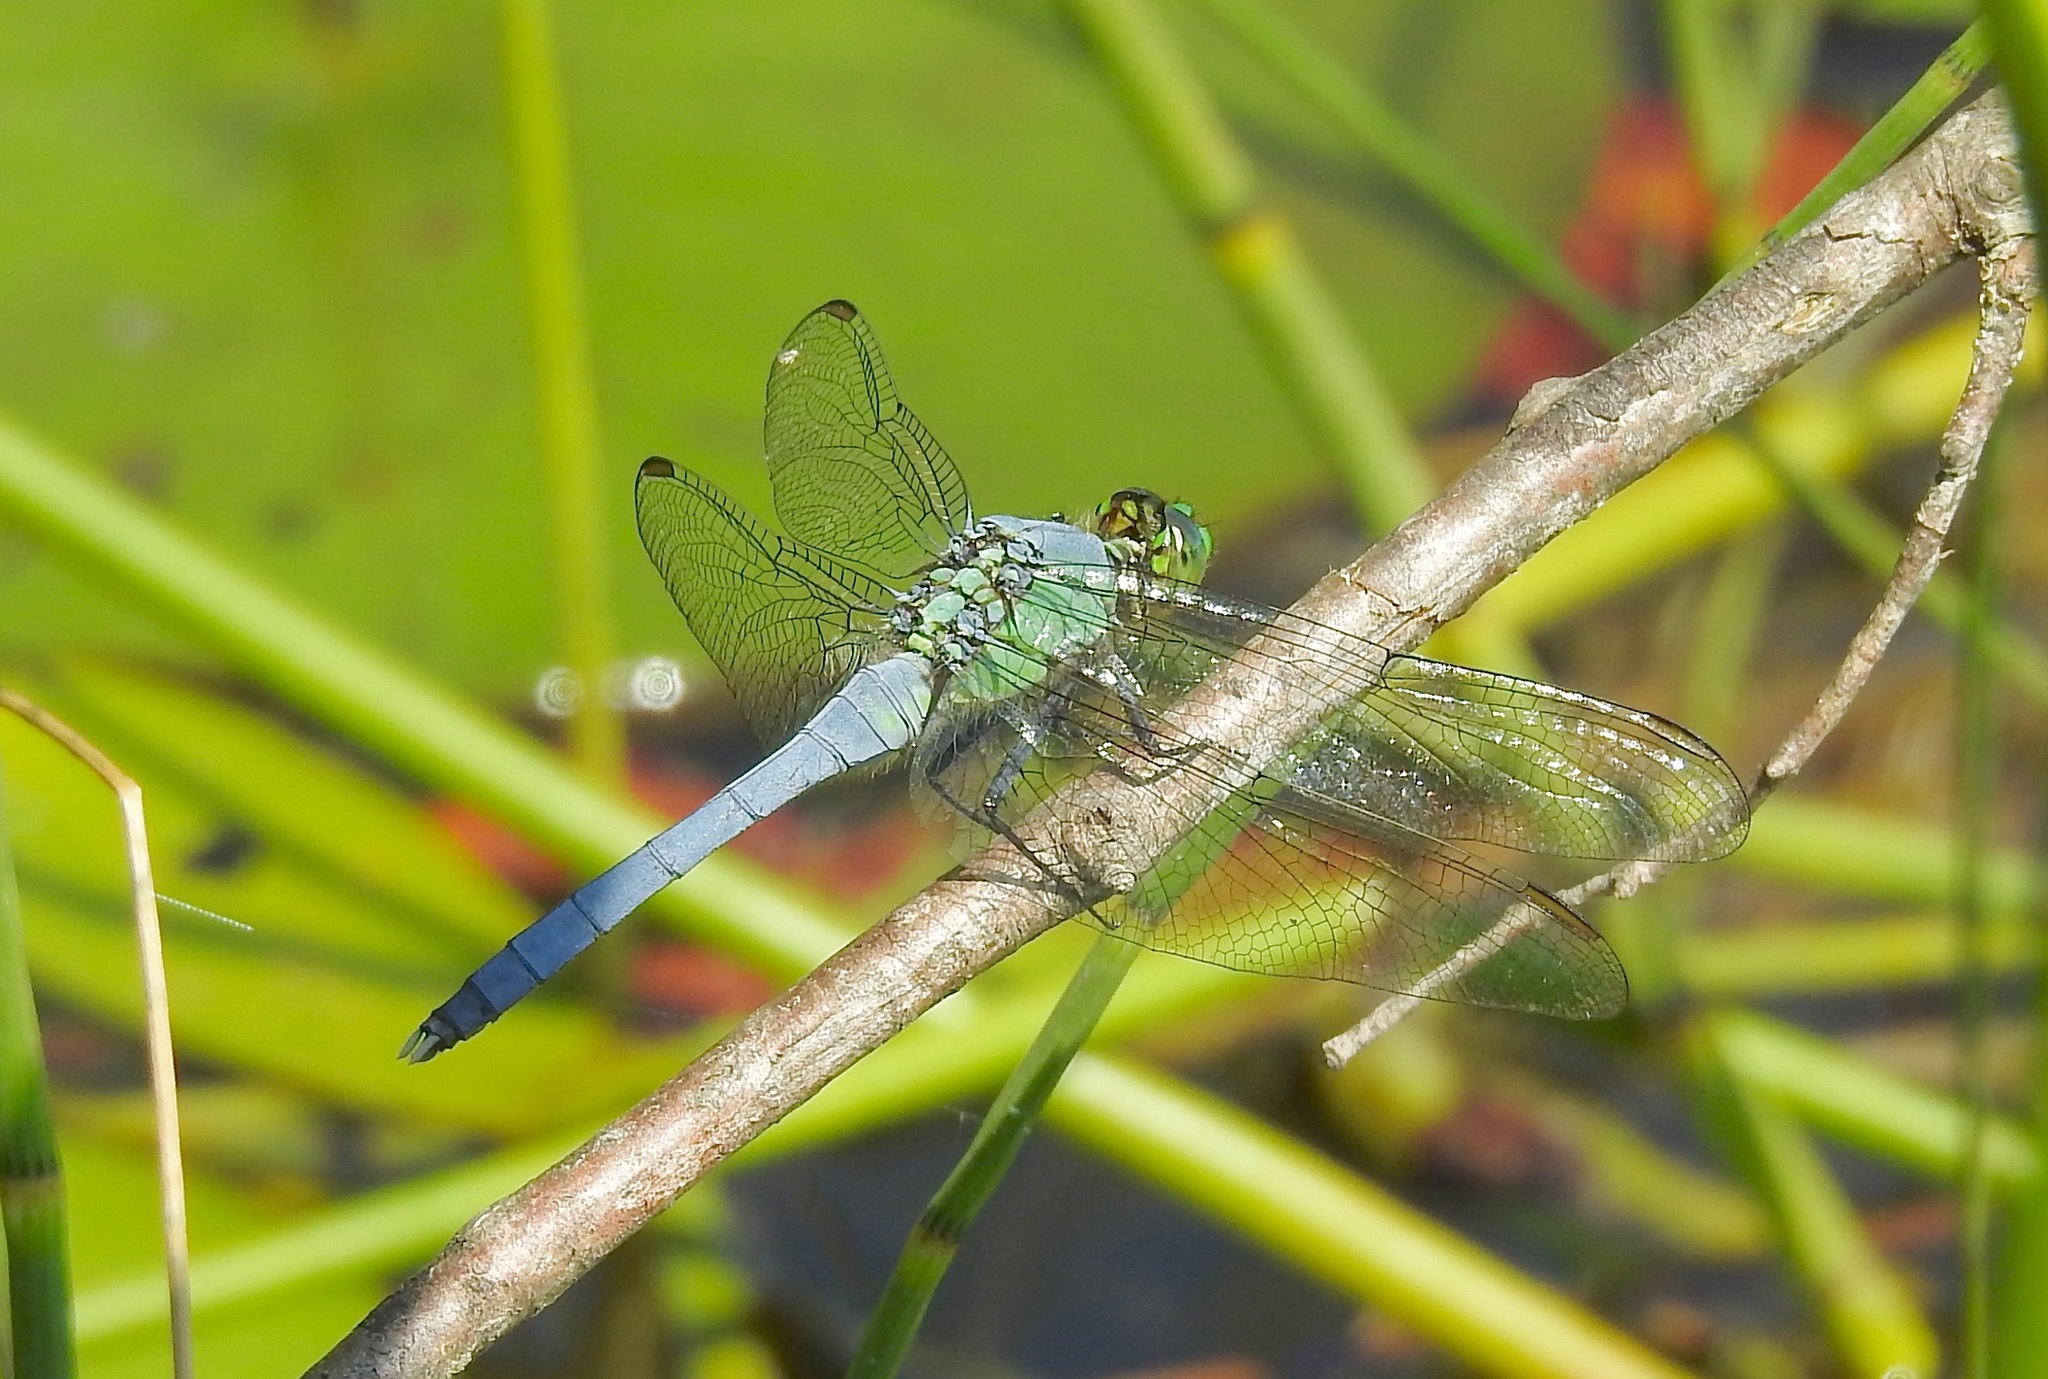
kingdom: Animalia
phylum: Arthropoda
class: Insecta
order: Odonata
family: Libellulidae
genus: Erythemis
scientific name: Erythemis simplicicollis
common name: Eastern pondhawk
